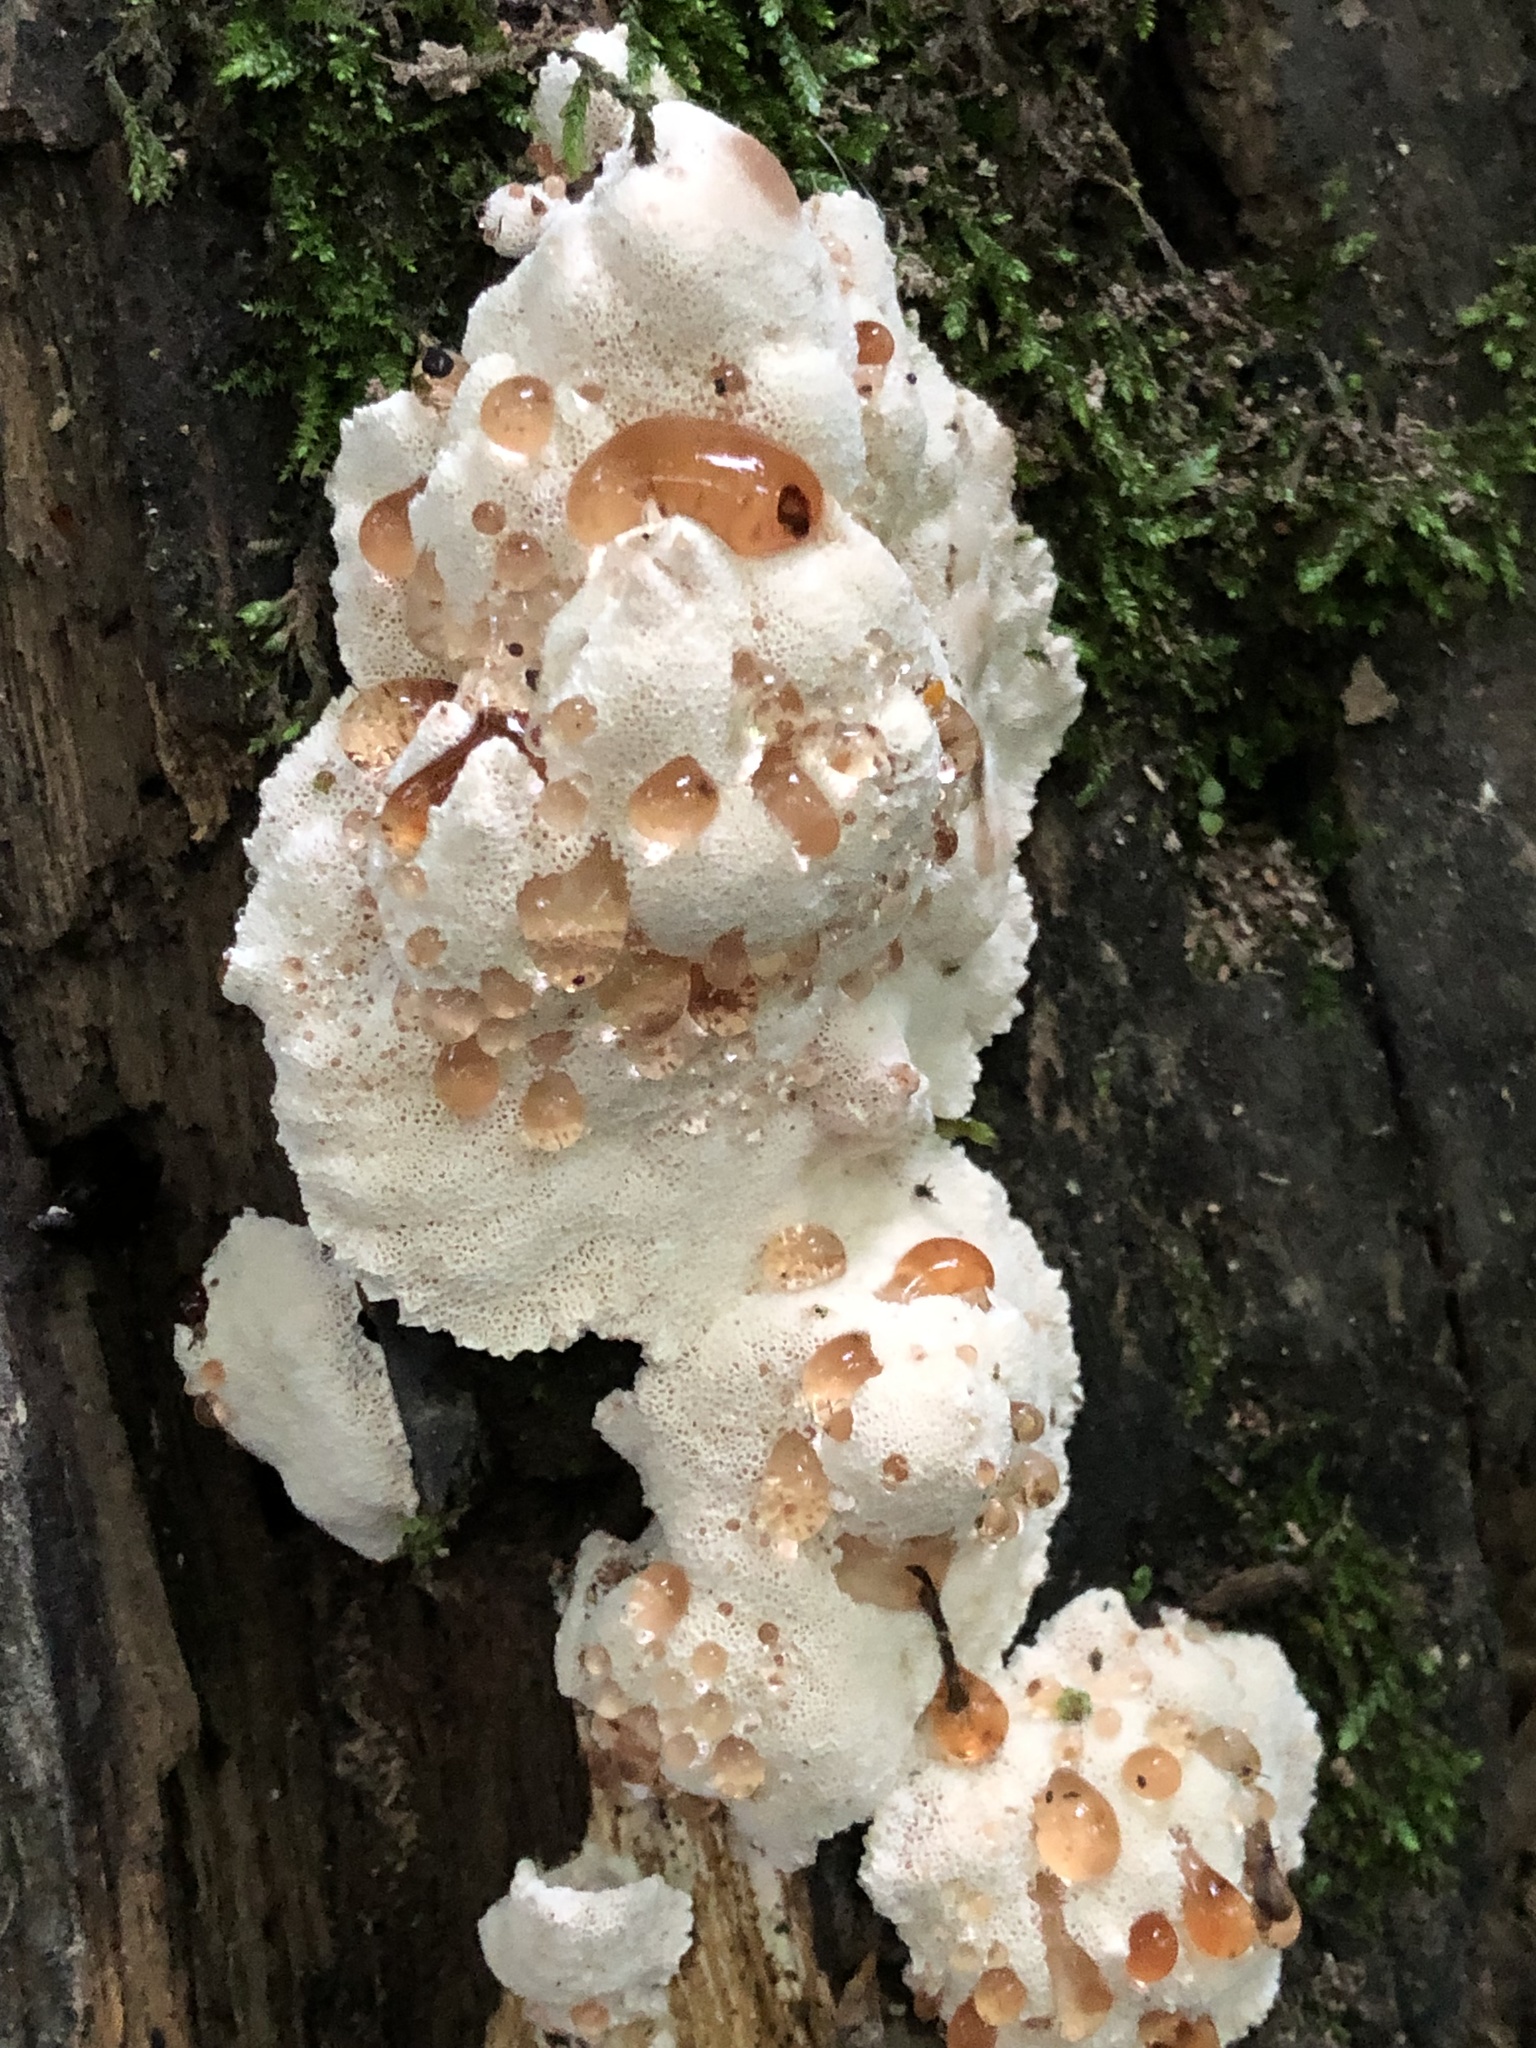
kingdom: Fungi
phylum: Basidiomycota
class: Agaricomycetes
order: Polyporales
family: Podoscyphaceae
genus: Abortiporus
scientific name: Abortiporus biennis
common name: Blushing rosette
